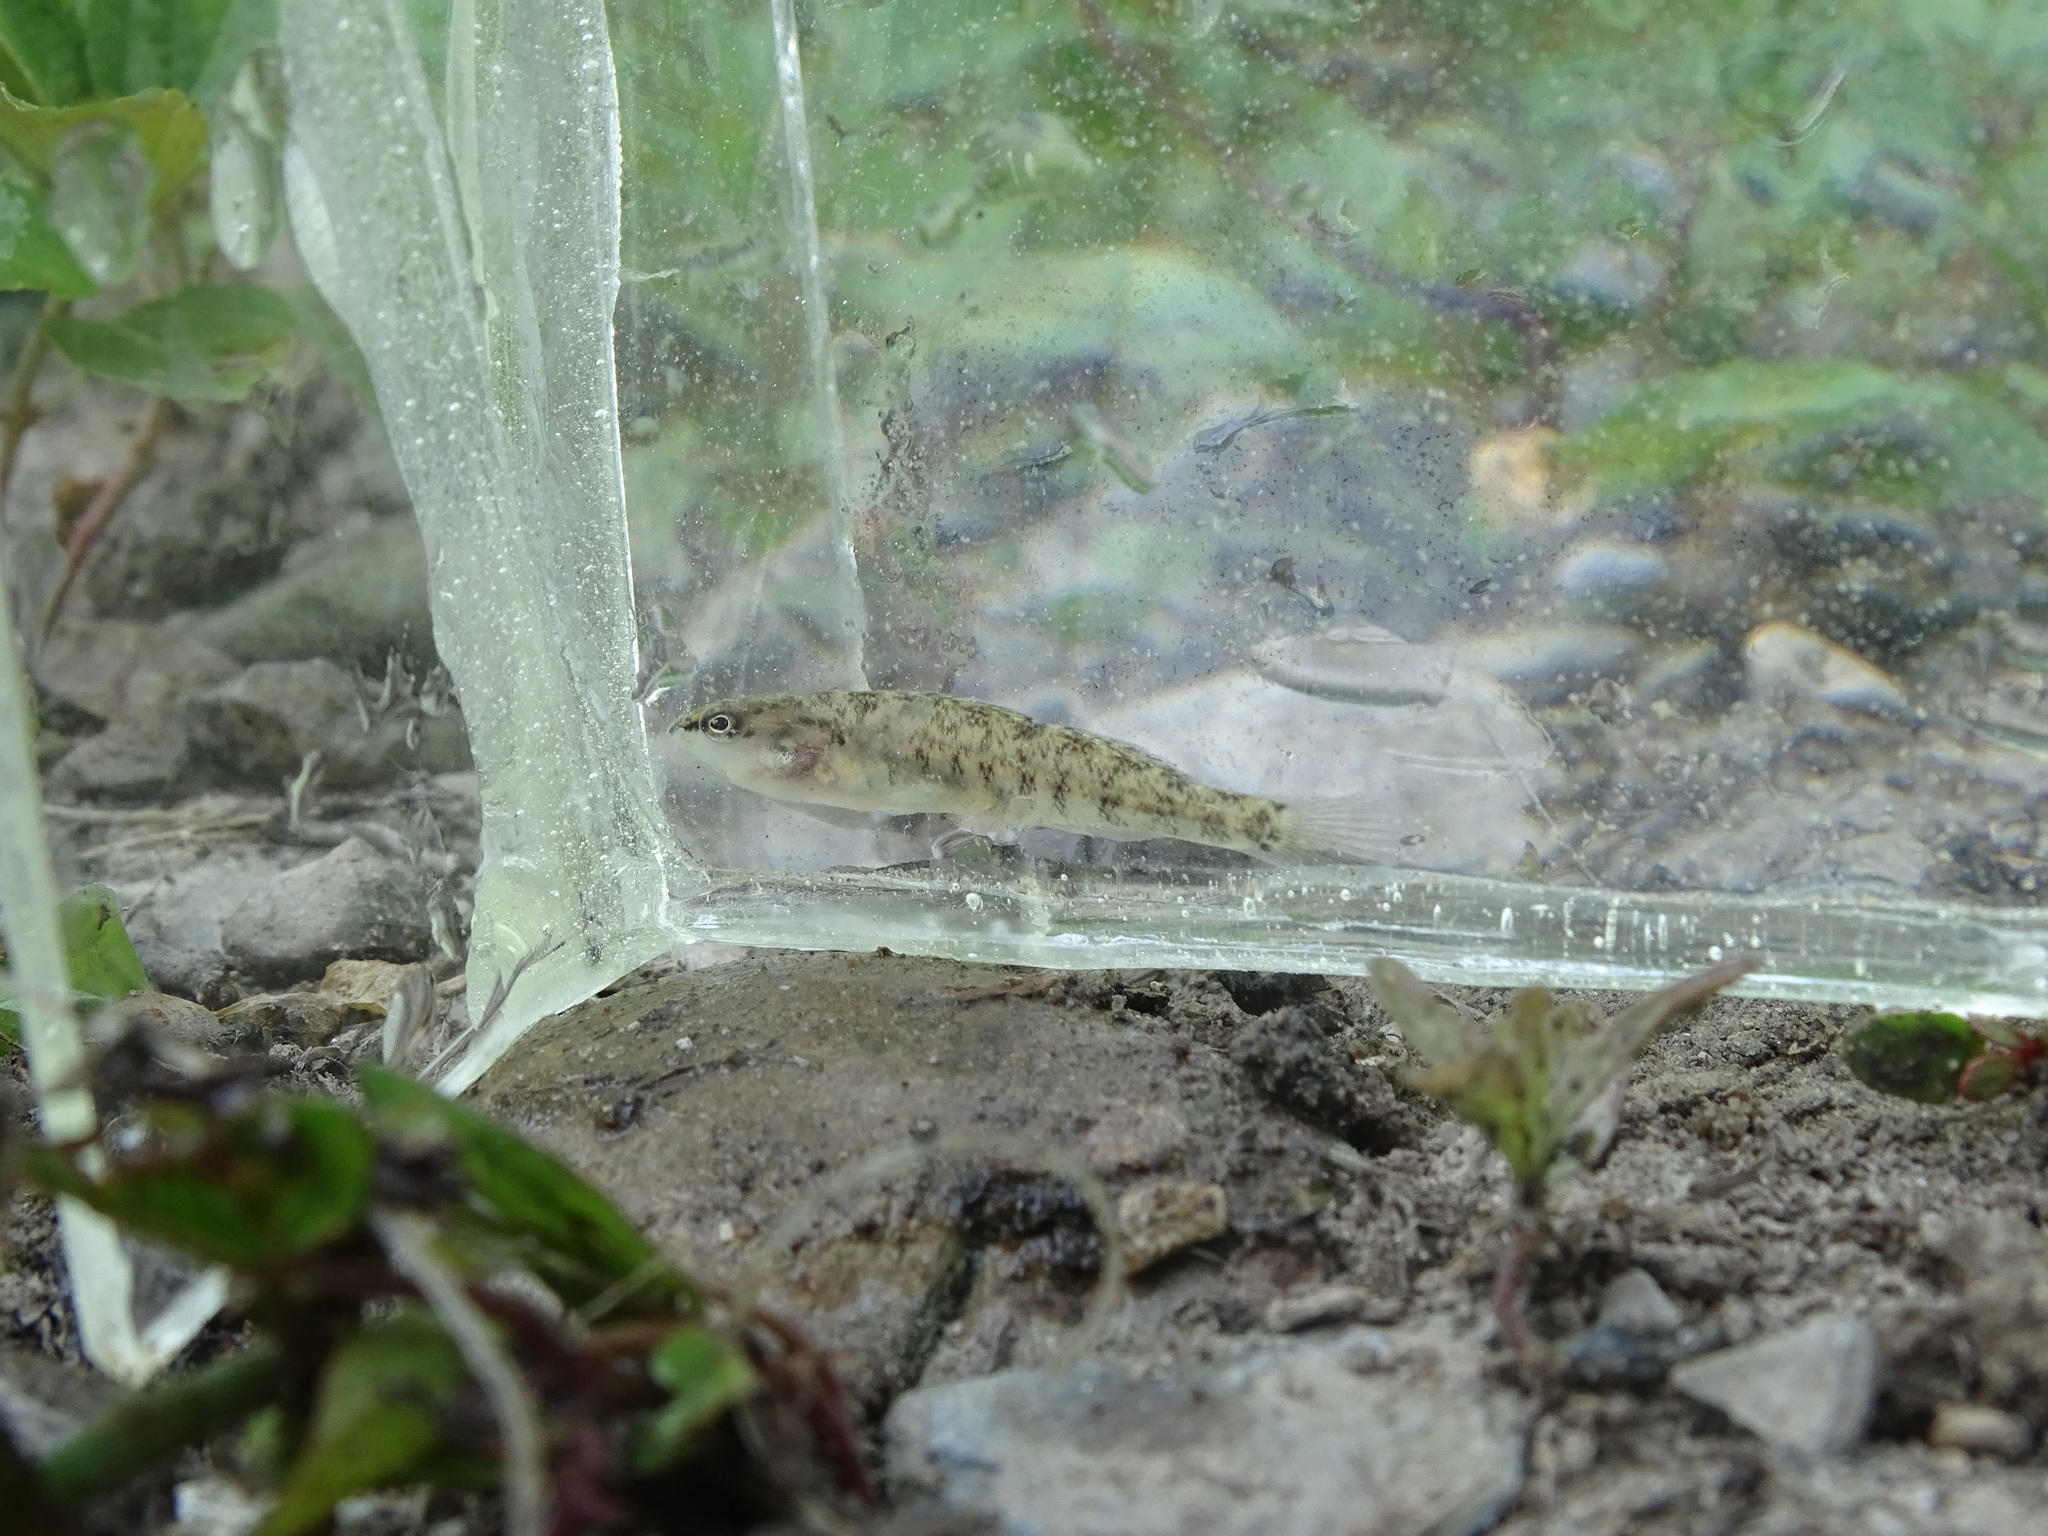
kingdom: Animalia
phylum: Chordata
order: Perciformes
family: Percidae
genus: Etheostoma
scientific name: Etheostoma caeruleum
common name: Rainbow darter
